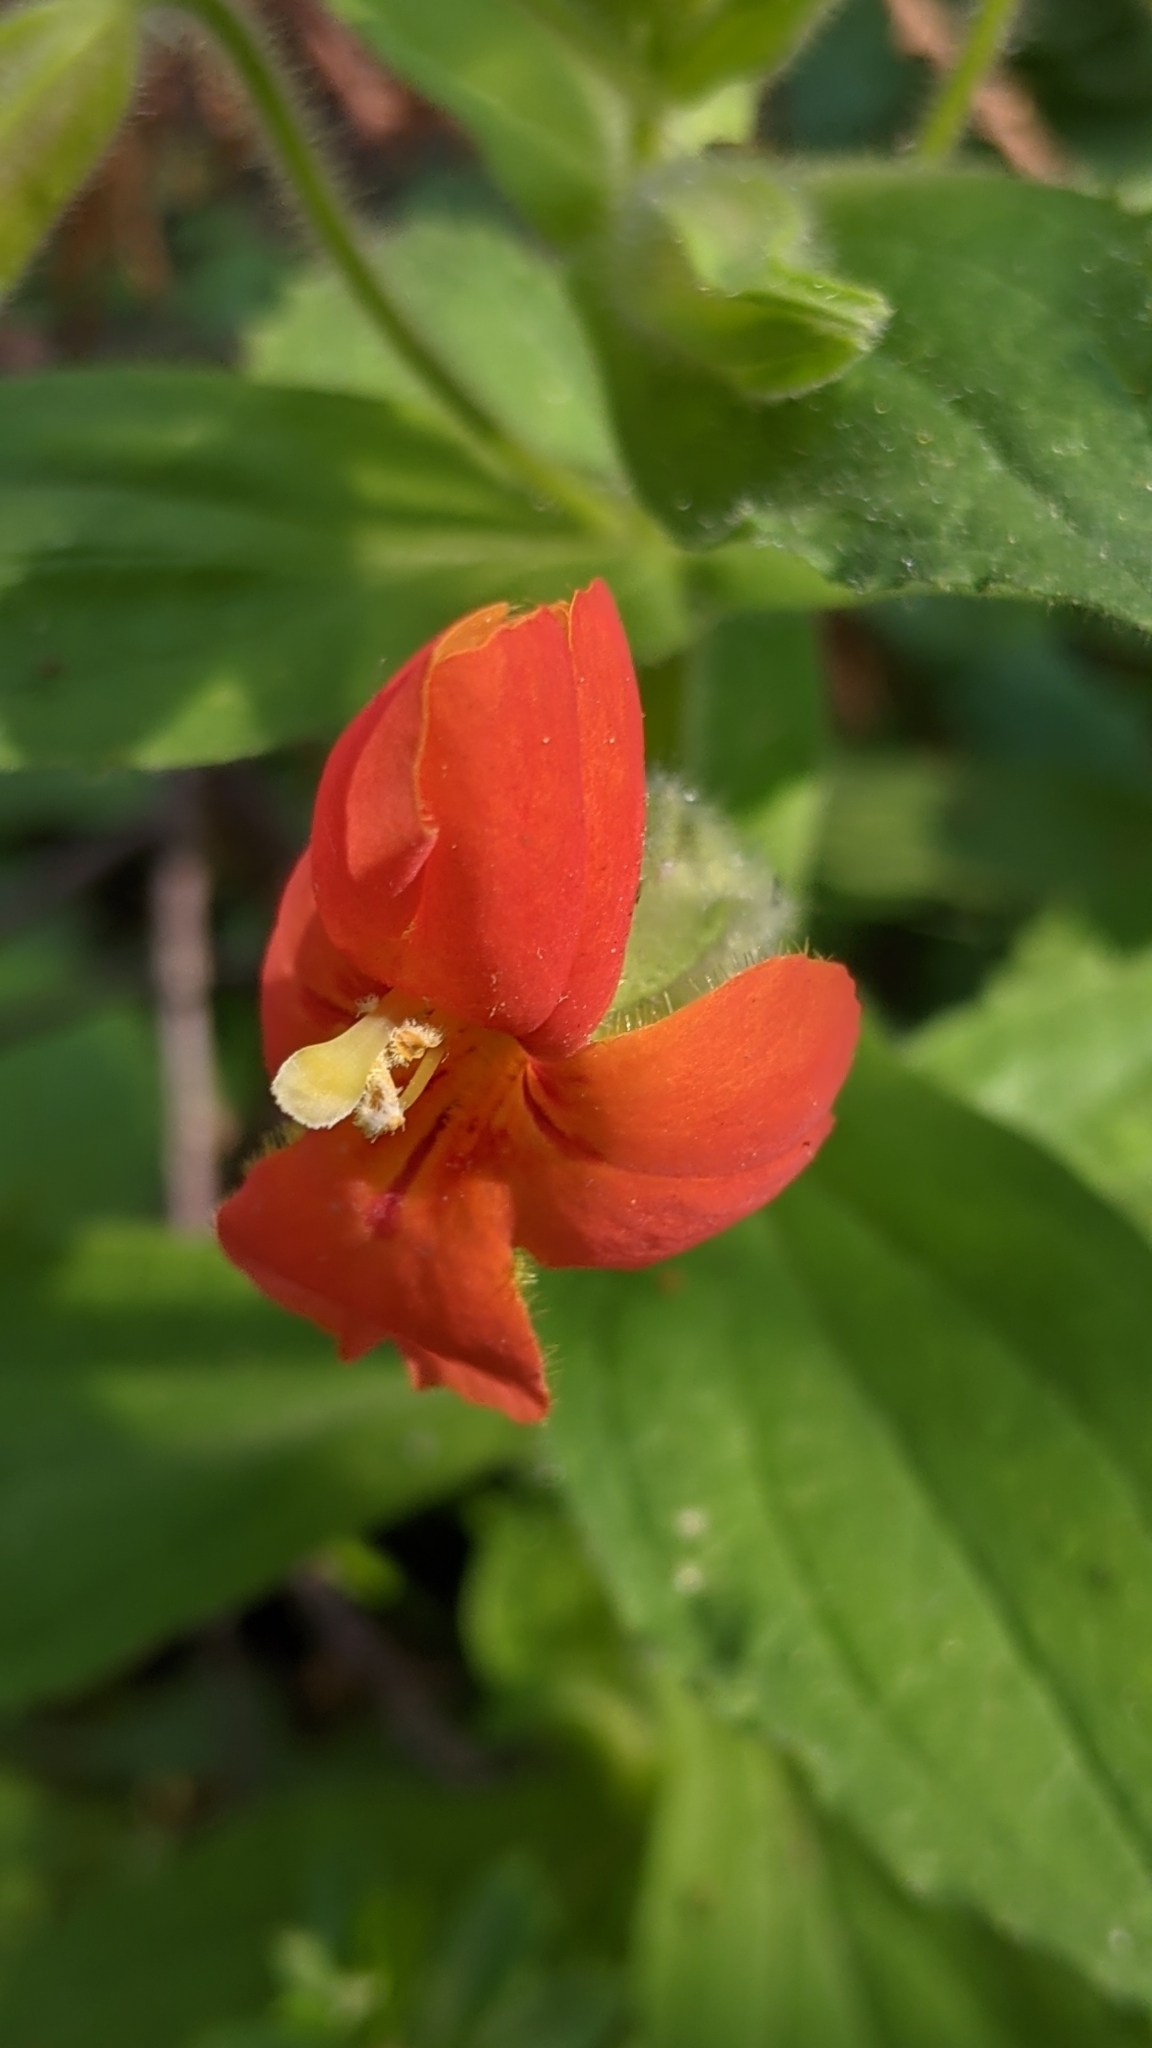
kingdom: Plantae
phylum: Tracheophyta
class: Magnoliopsida
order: Lamiales
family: Phrymaceae
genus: Erythranthe
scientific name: Erythranthe cardinalis
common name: Scarlet monkey-flower
